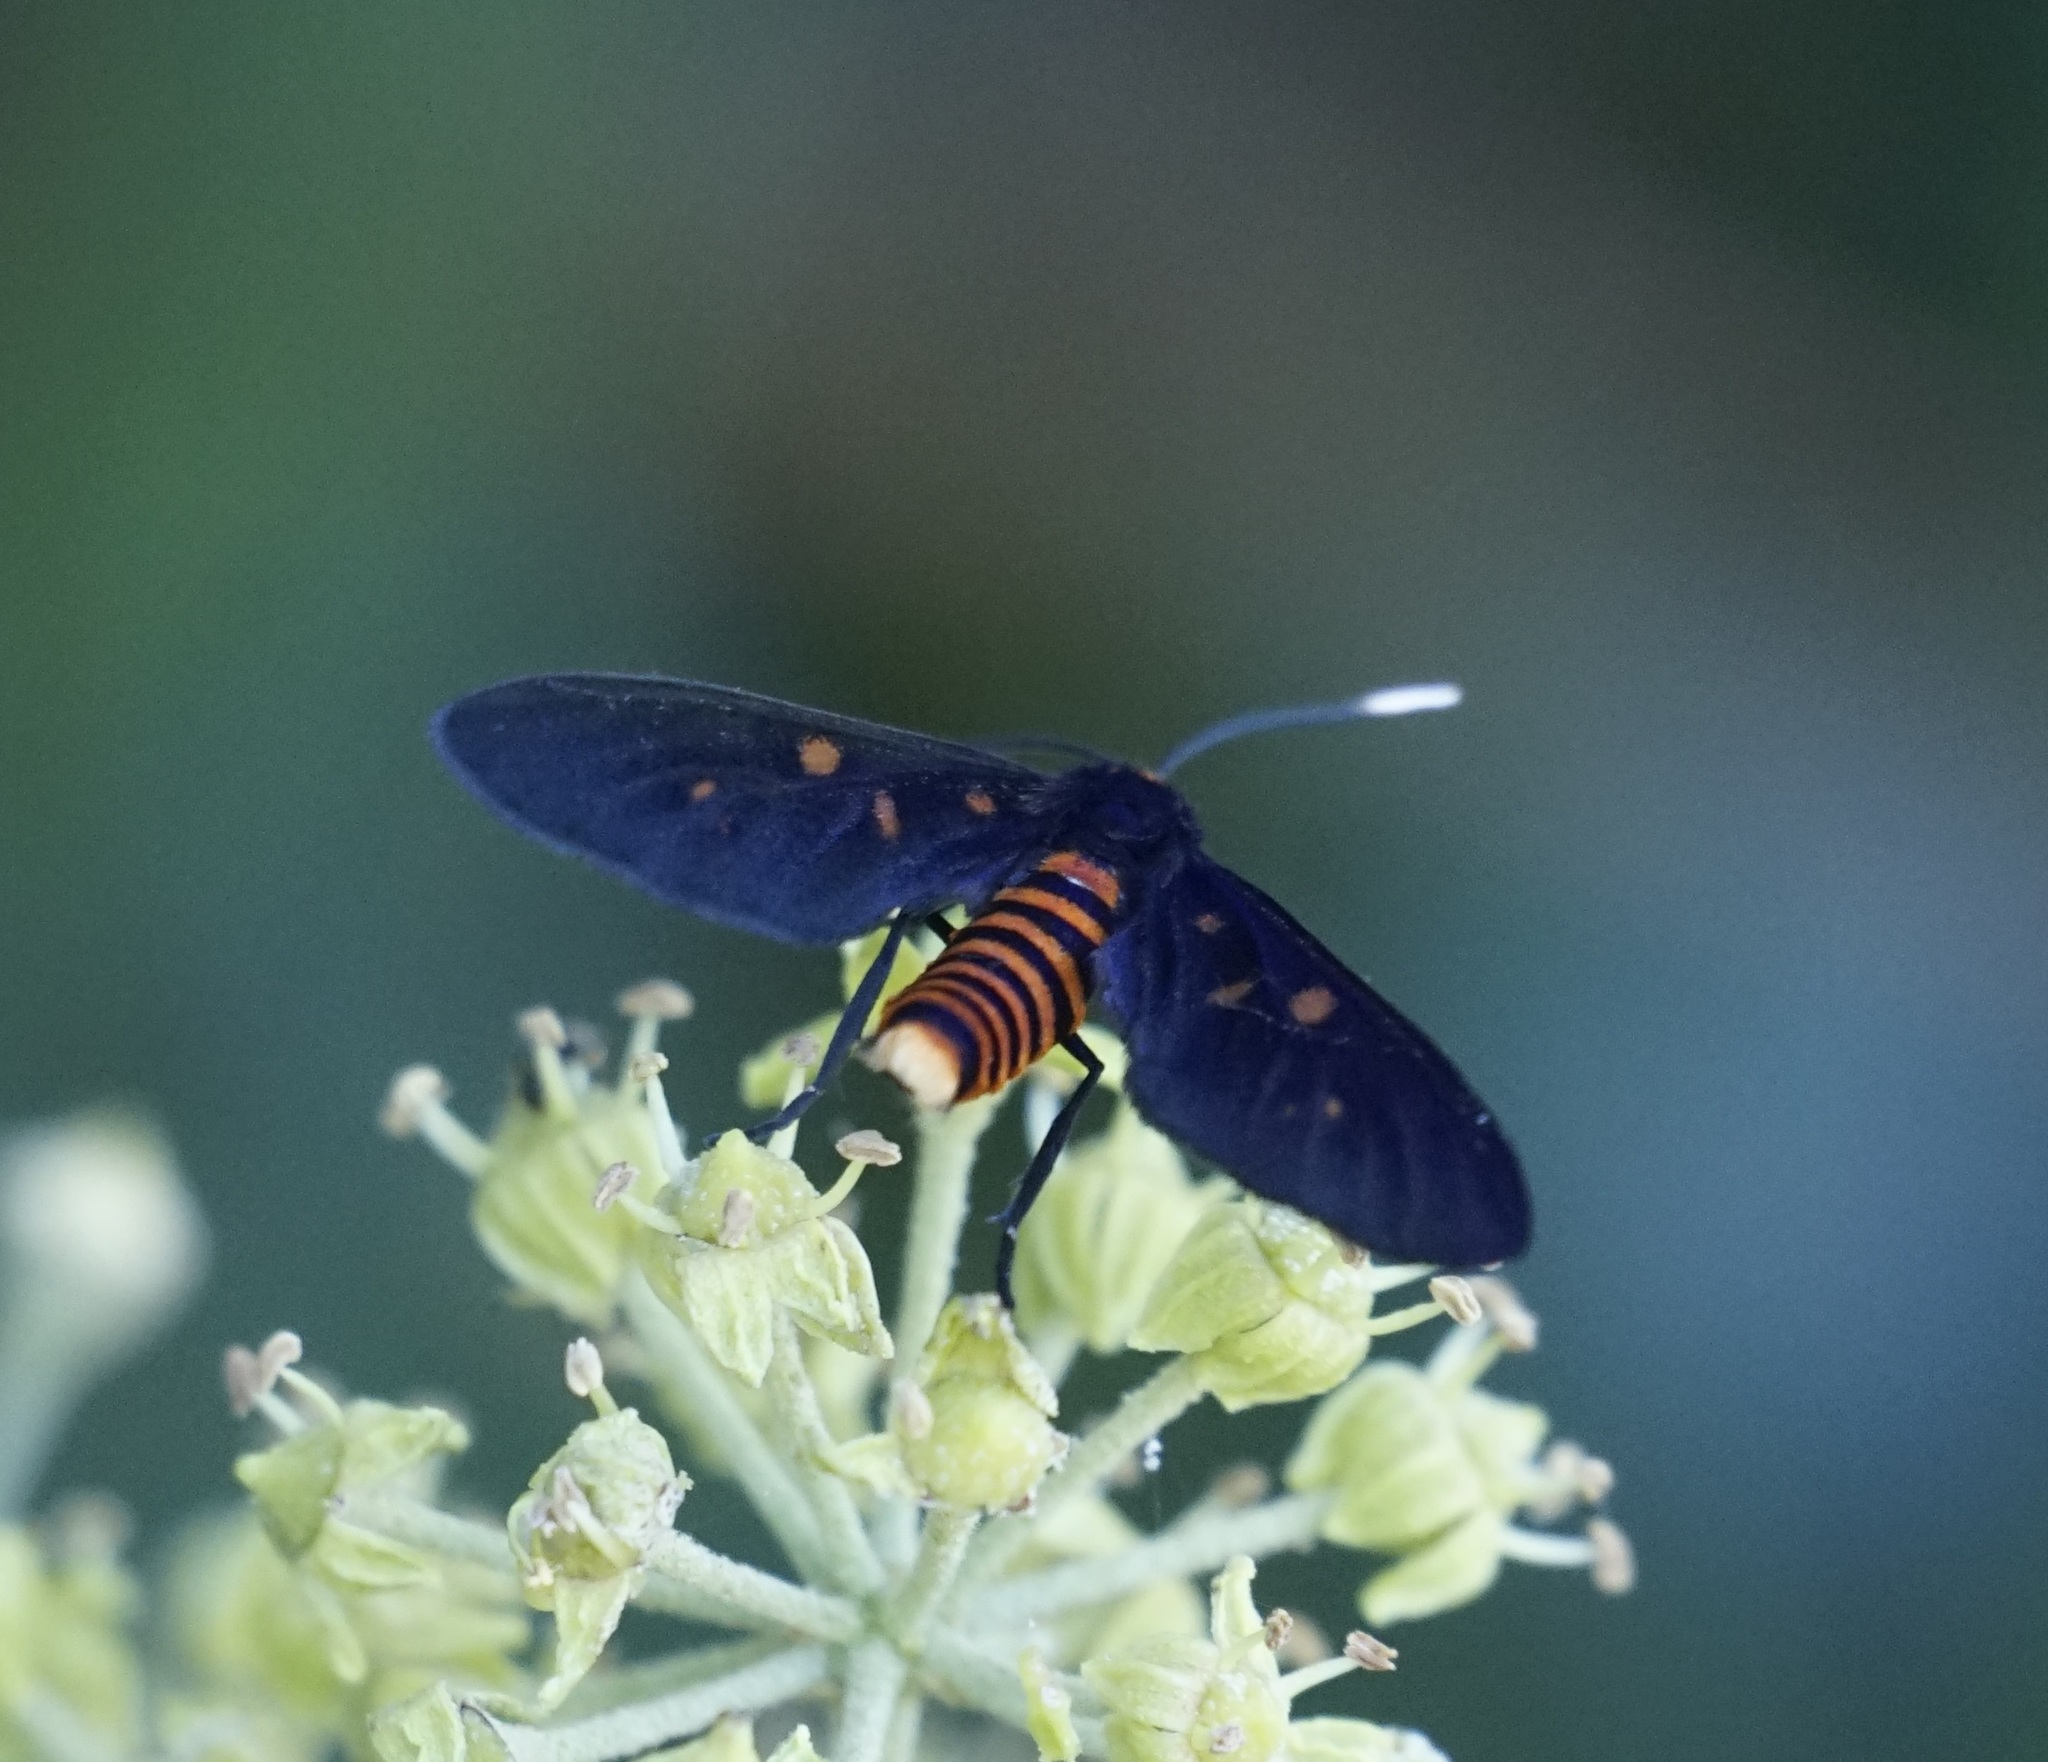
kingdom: Animalia
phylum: Arthropoda
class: Insecta
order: Lepidoptera
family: Erebidae
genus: Amata
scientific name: Amata phepsalotis
